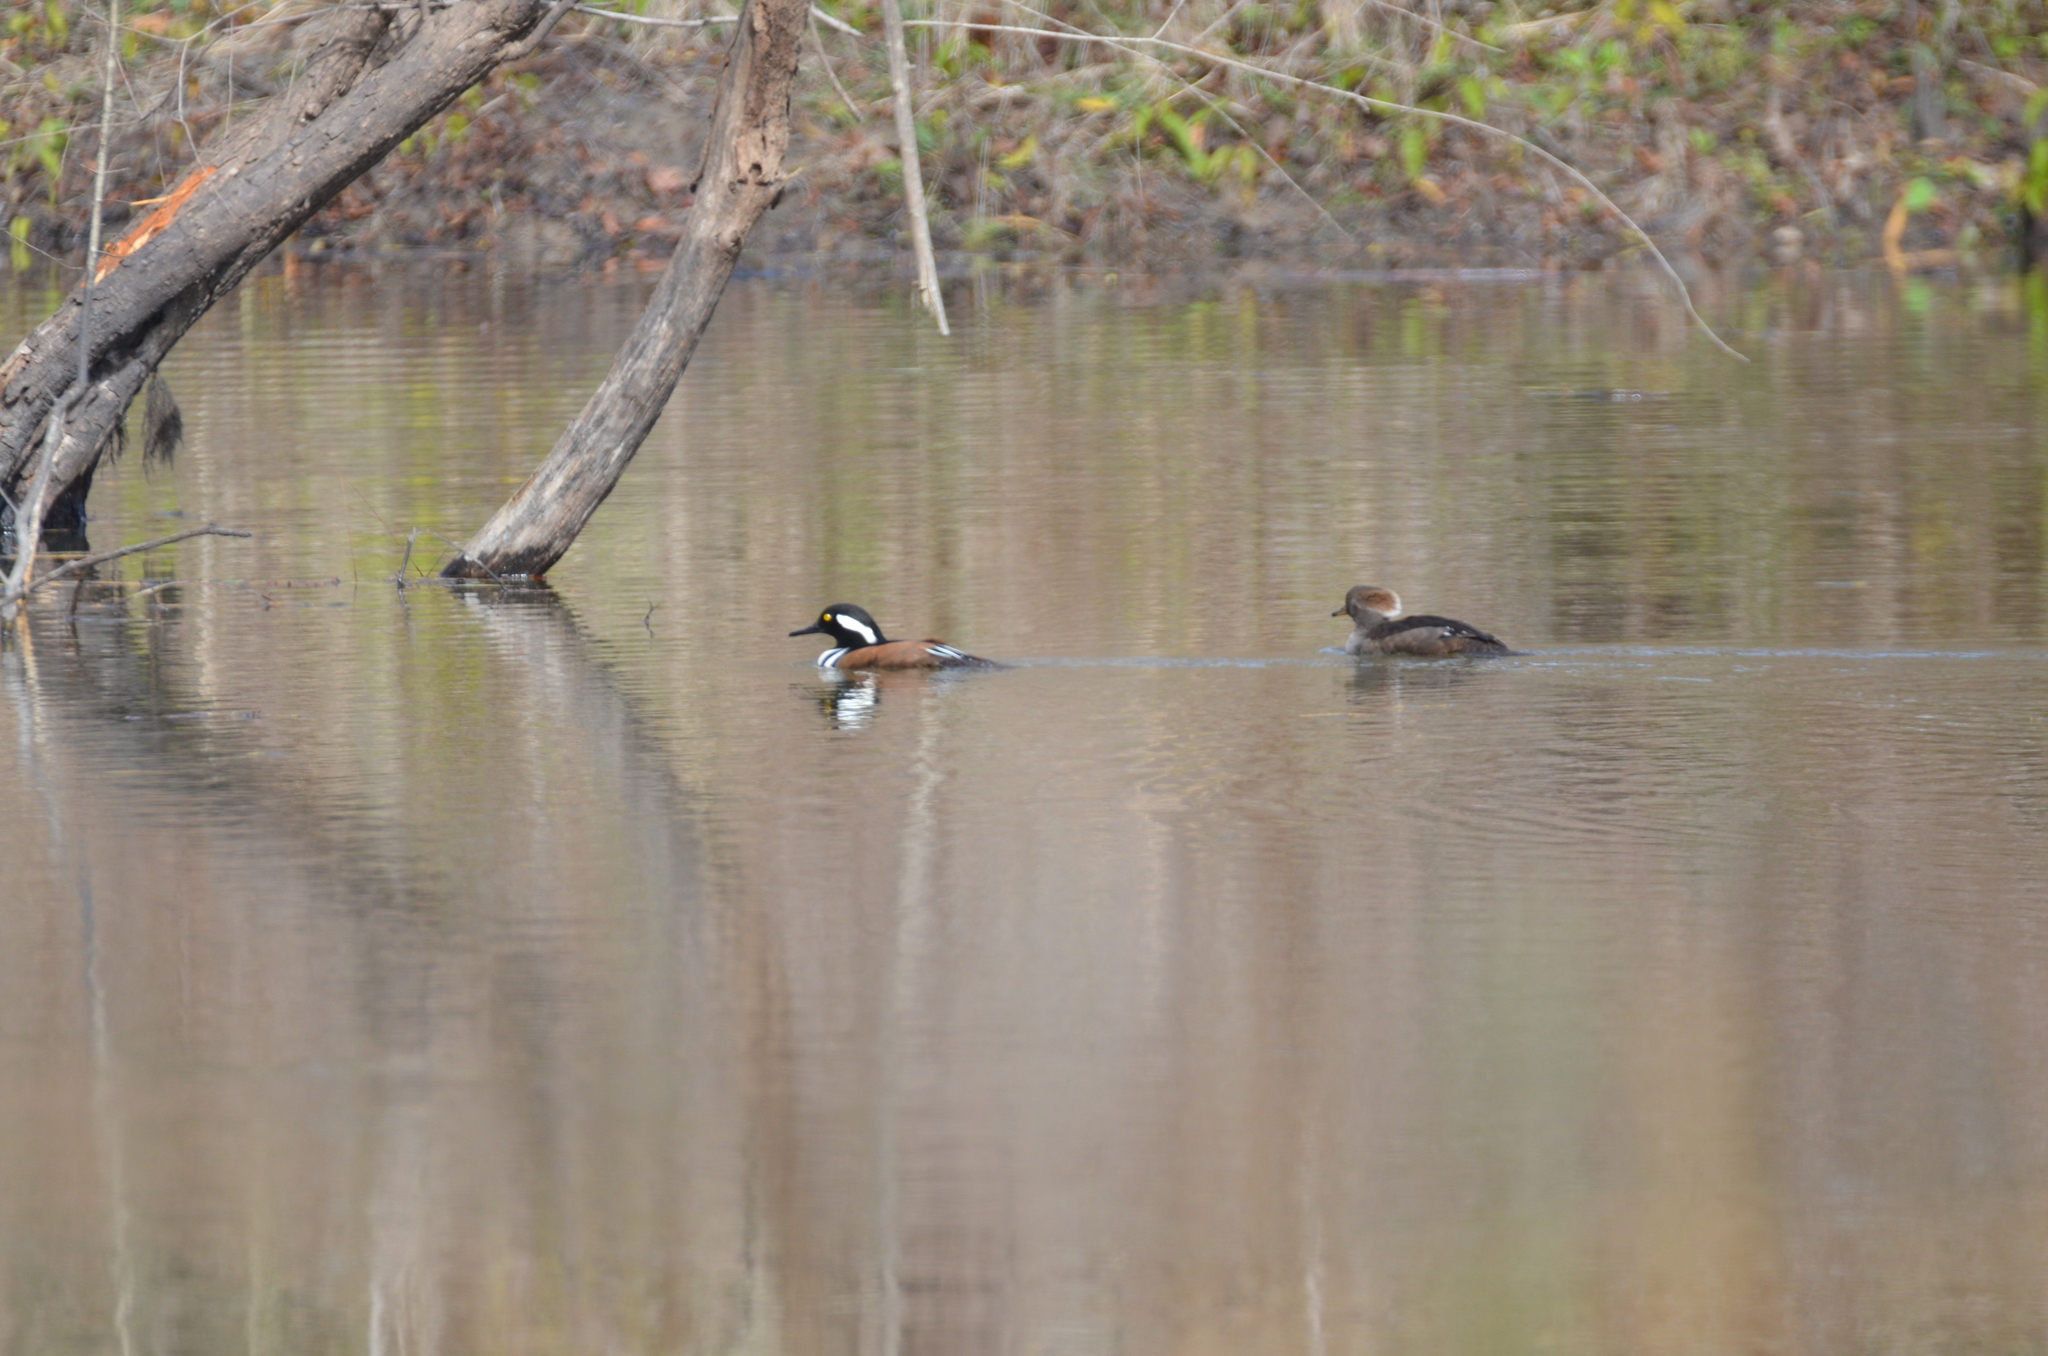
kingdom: Animalia
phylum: Chordata
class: Aves
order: Anseriformes
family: Anatidae
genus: Lophodytes
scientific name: Lophodytes cucullatus
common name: Hooded merganser
